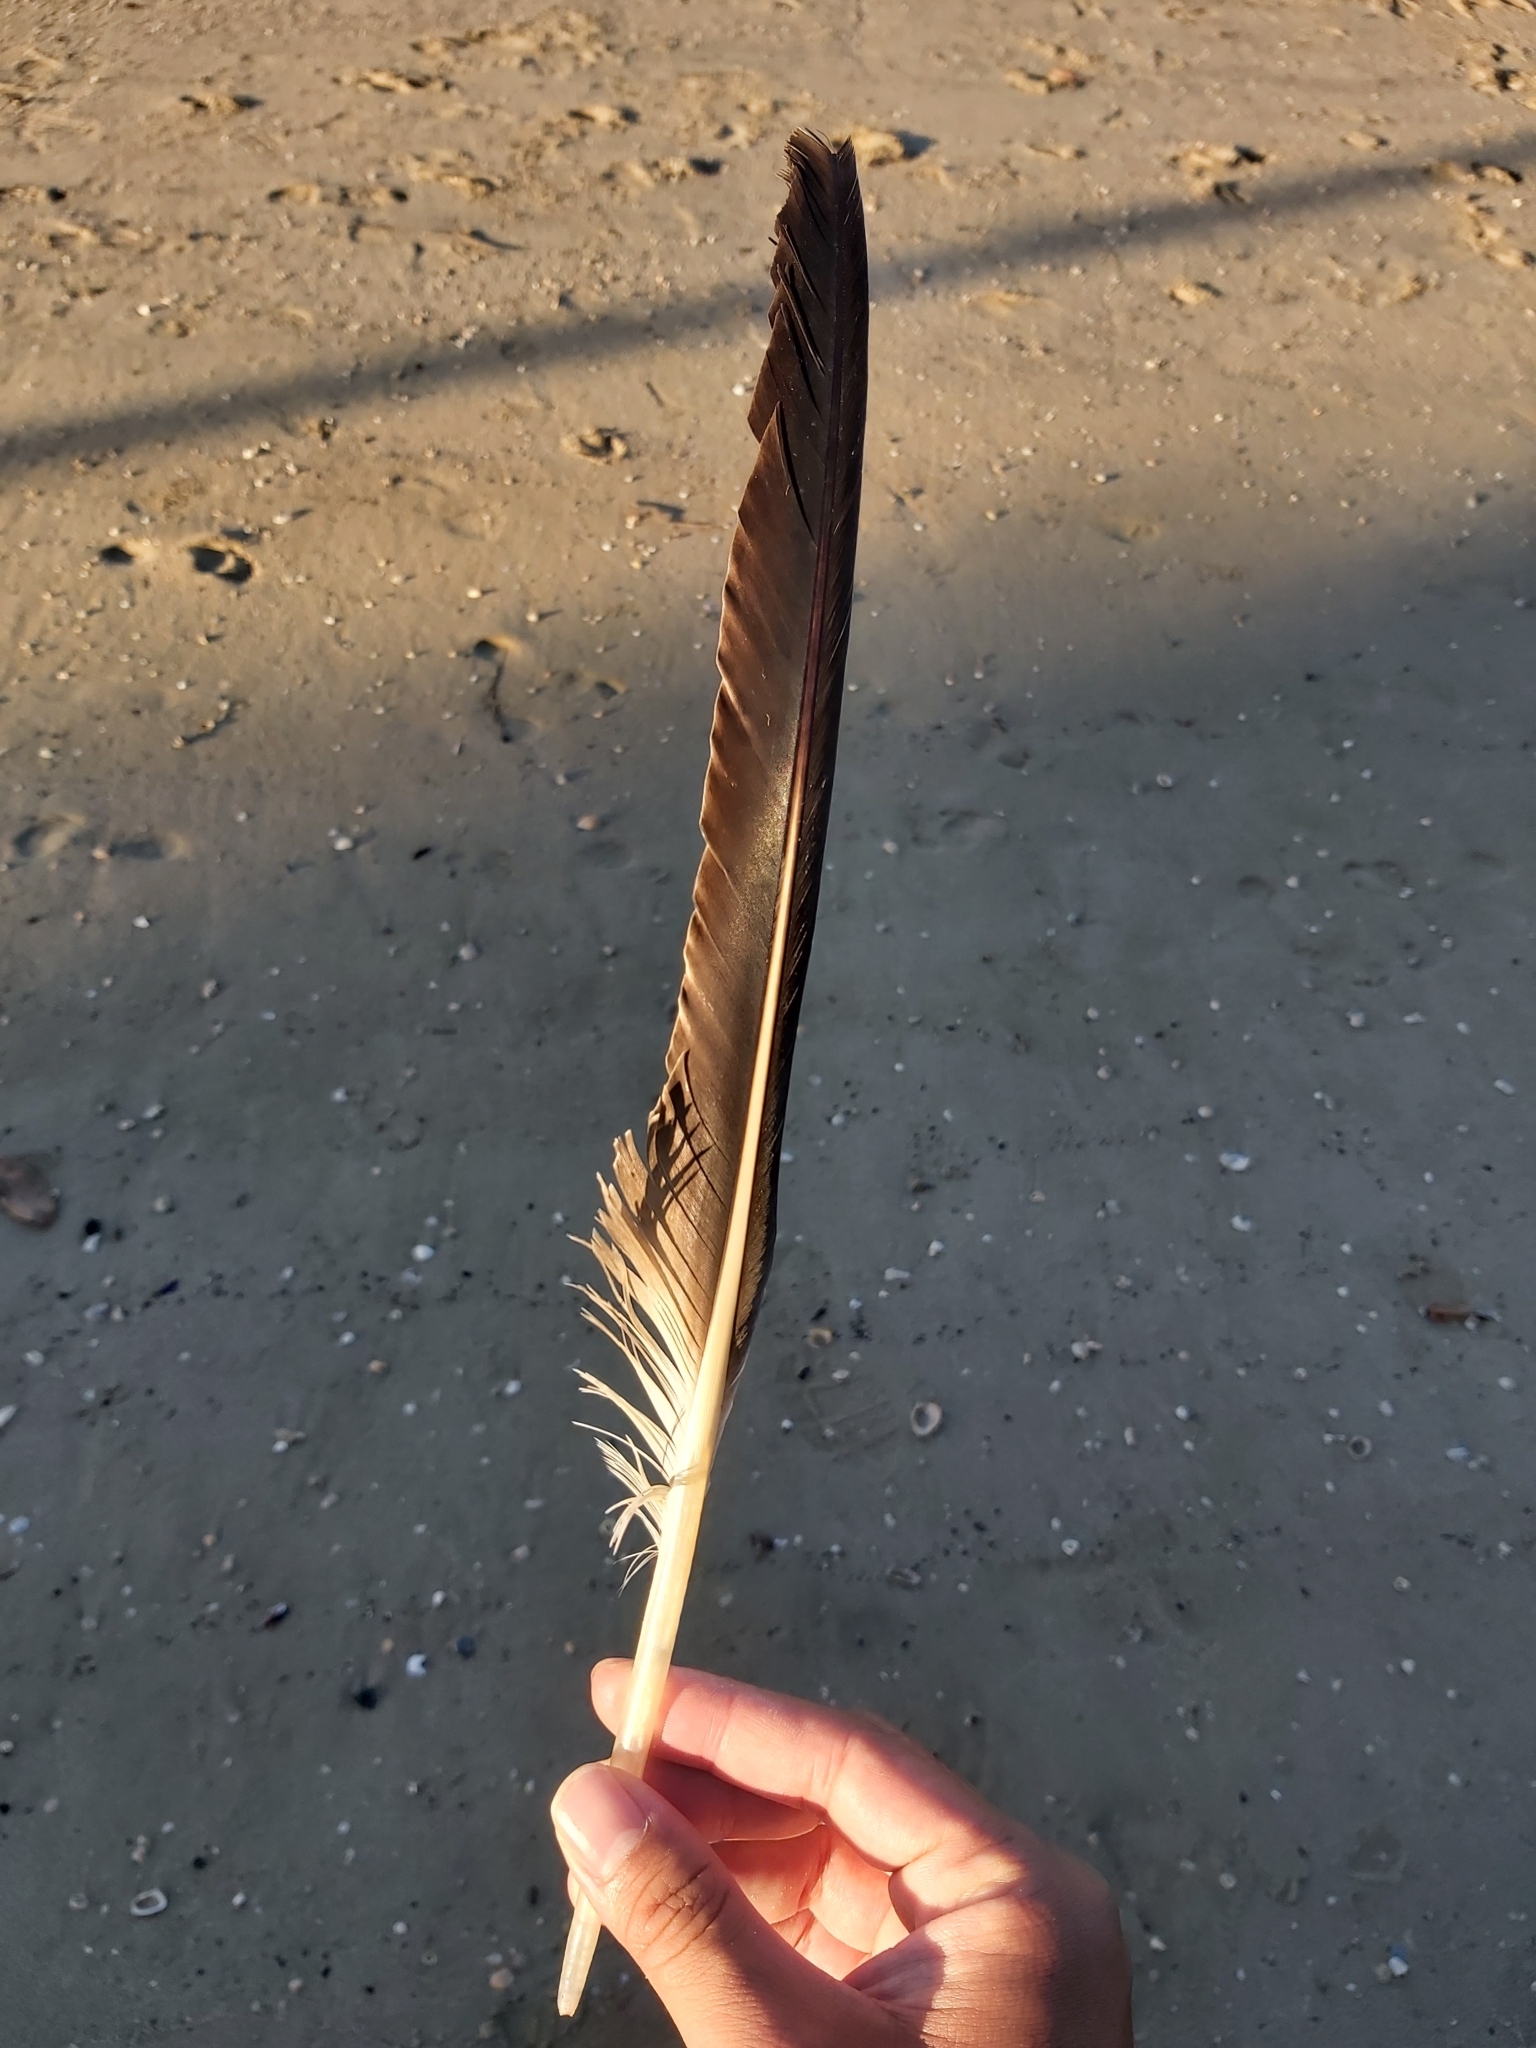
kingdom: Animalia
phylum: Chordata
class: Aves
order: Pelecaniformes
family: Pelecanidae
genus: Pelecanus
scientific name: Pelecanus conspicillatus
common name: Australian pelican
